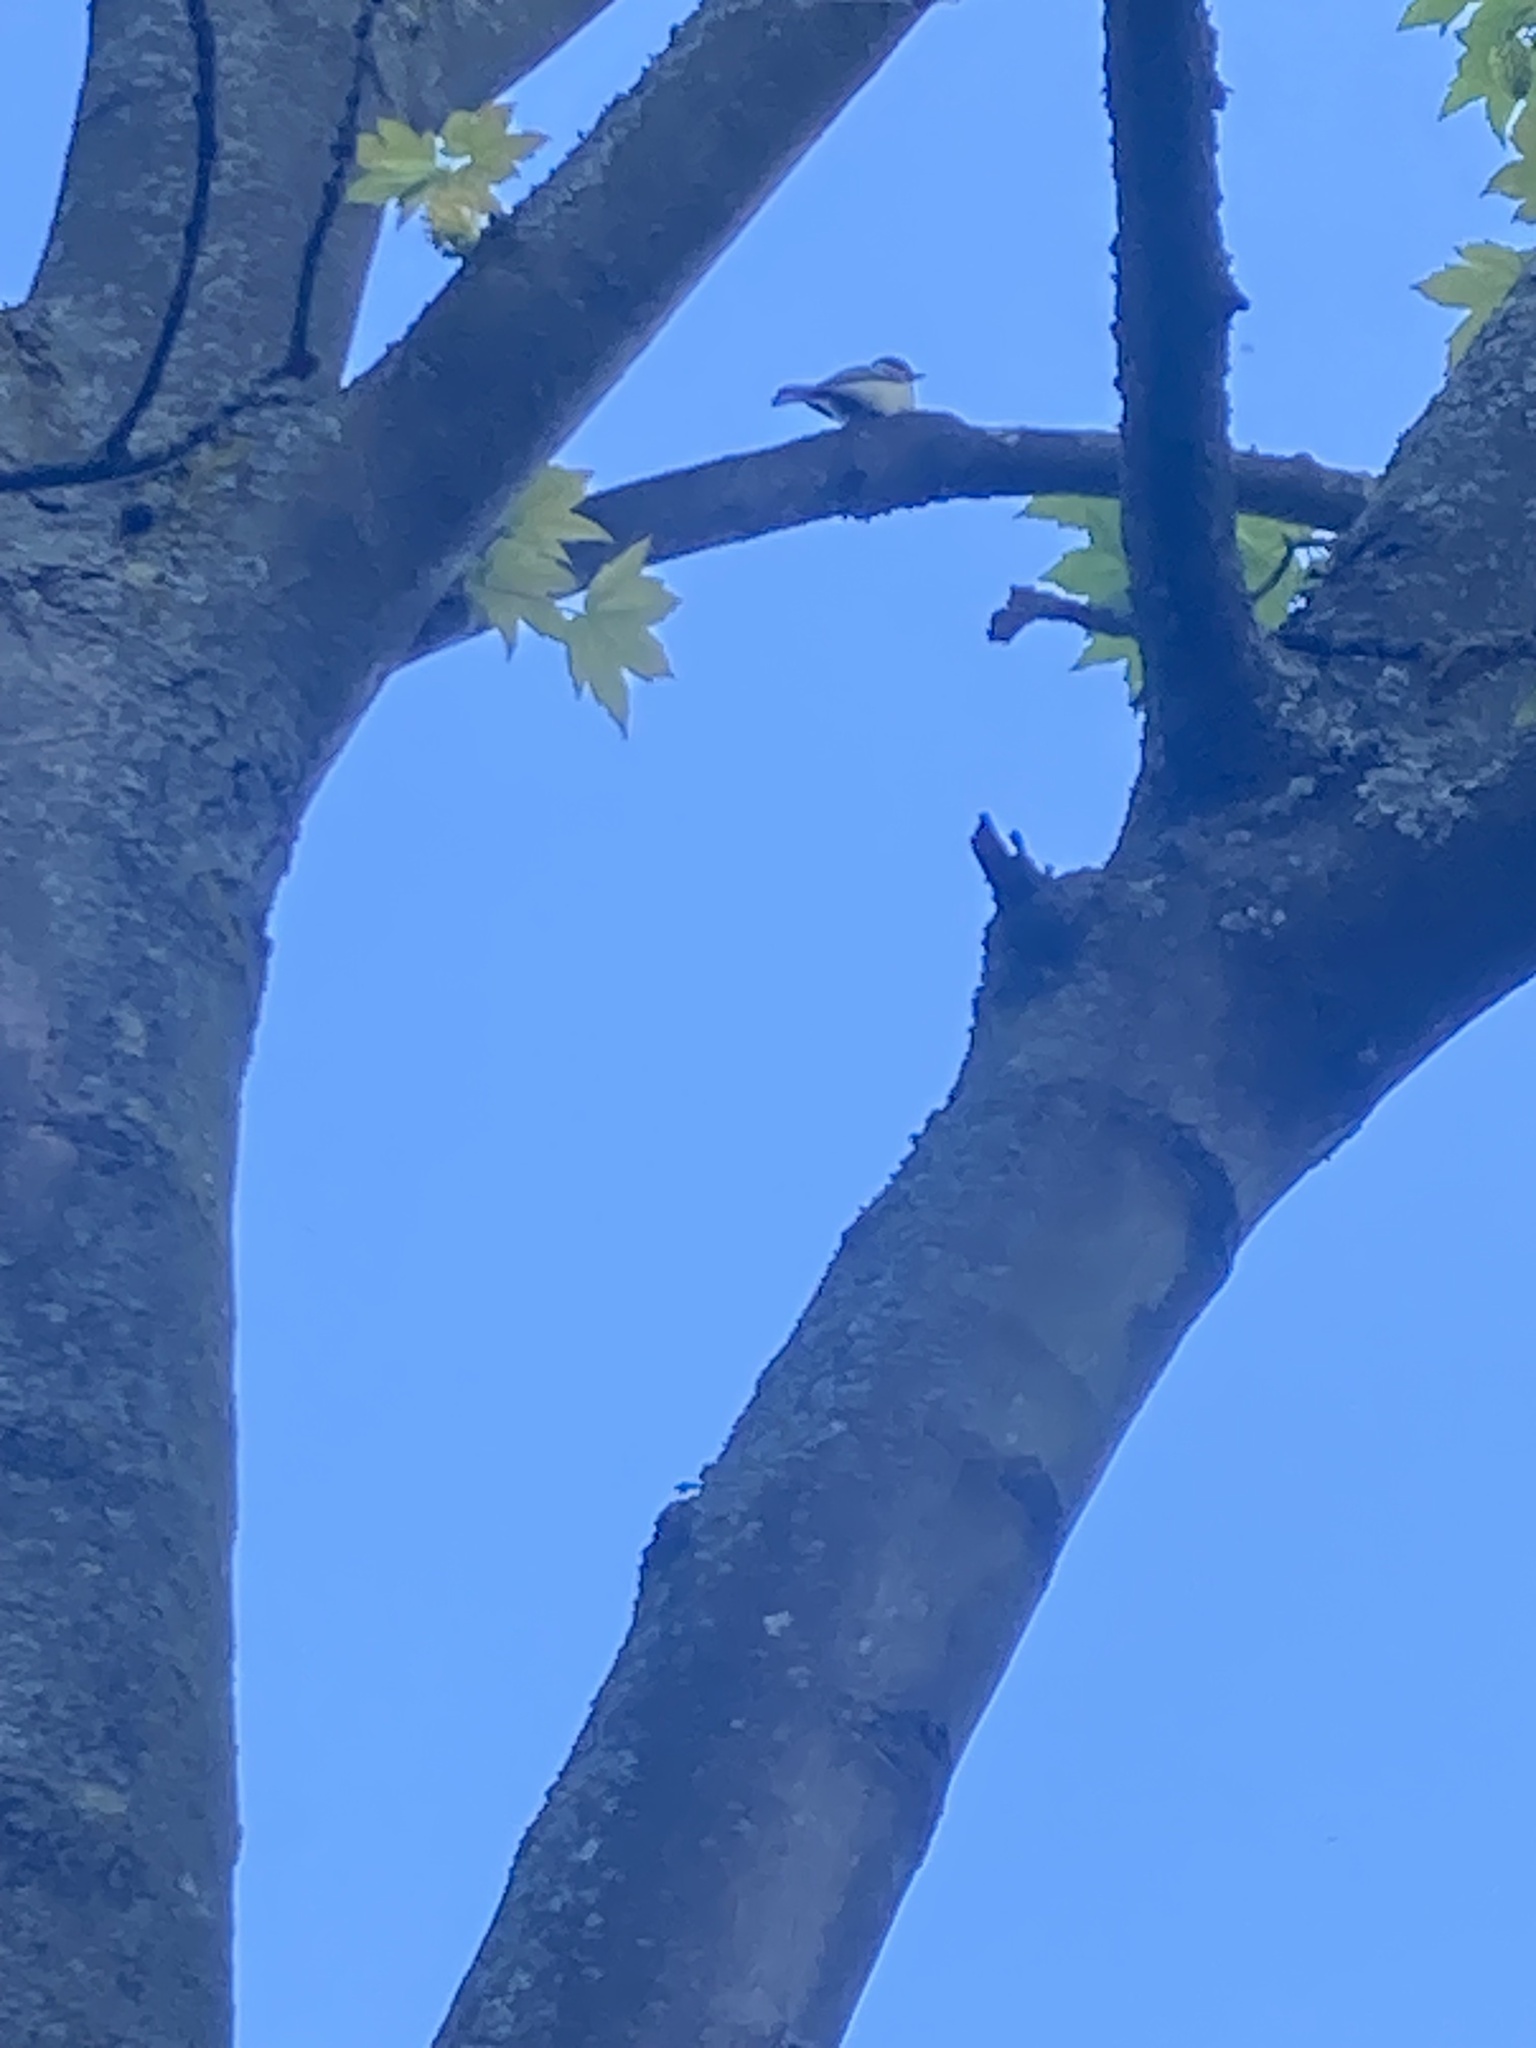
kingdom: Animalia
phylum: Chordata
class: Aves
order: Passeriformes
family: Paridae
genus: Parus
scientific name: Parus major
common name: Great tit
